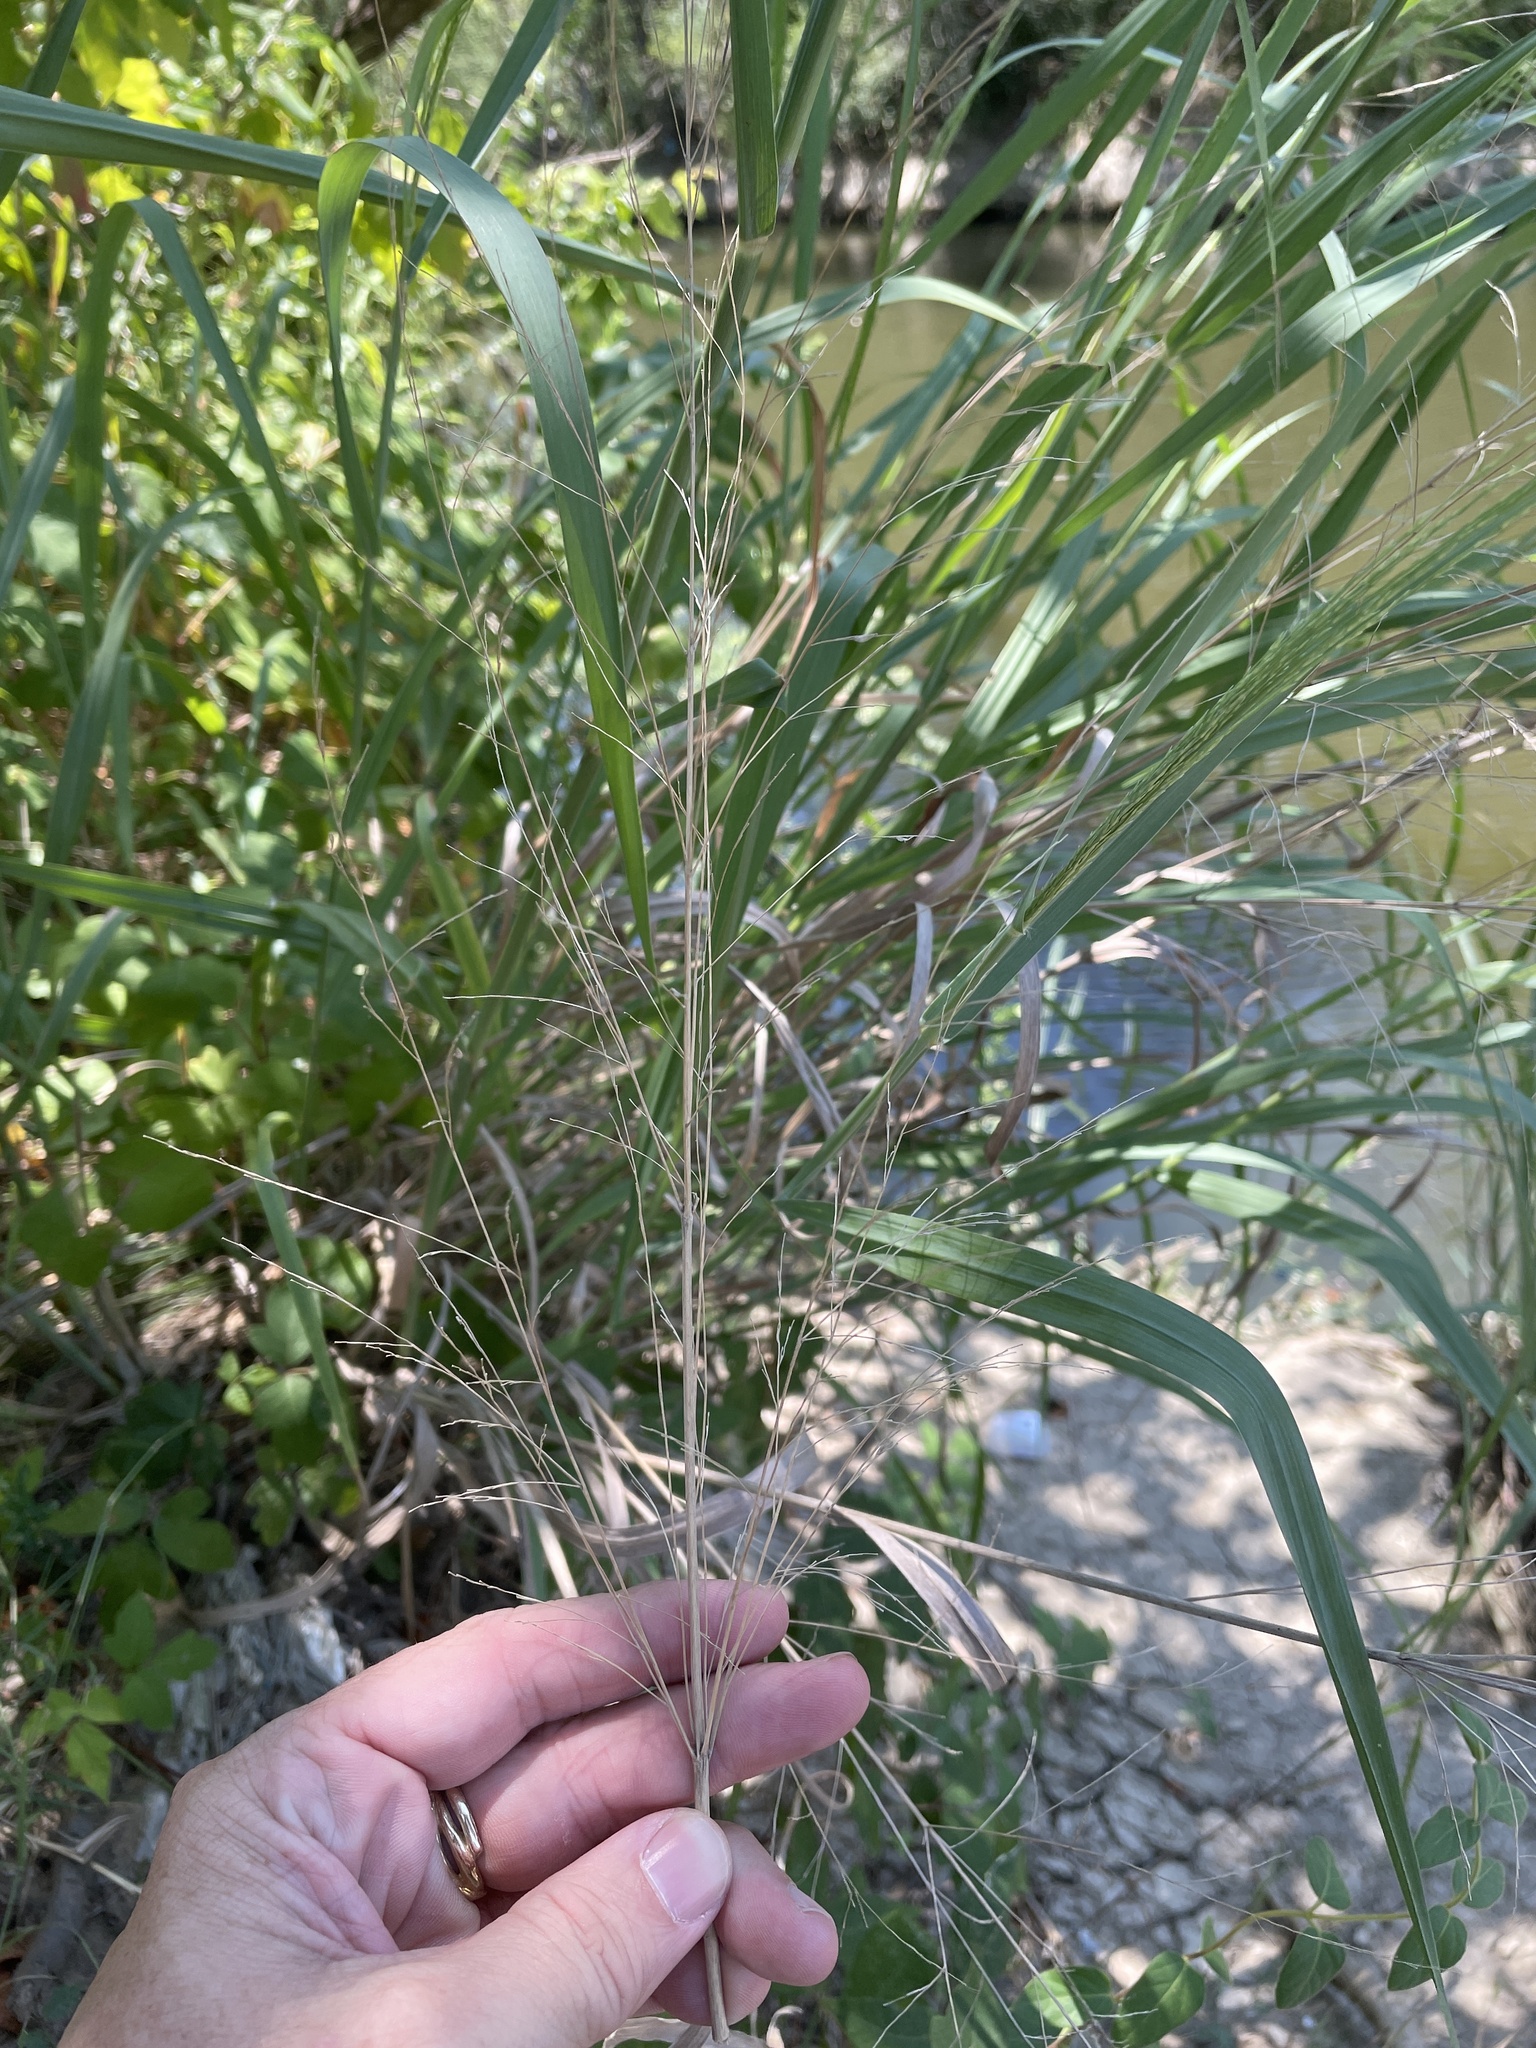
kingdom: Plantae
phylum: Tracheophyta
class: Liliopsida
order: Poales
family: Poaceae
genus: Panicum
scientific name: Panicum virgatum
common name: Switchgrass
